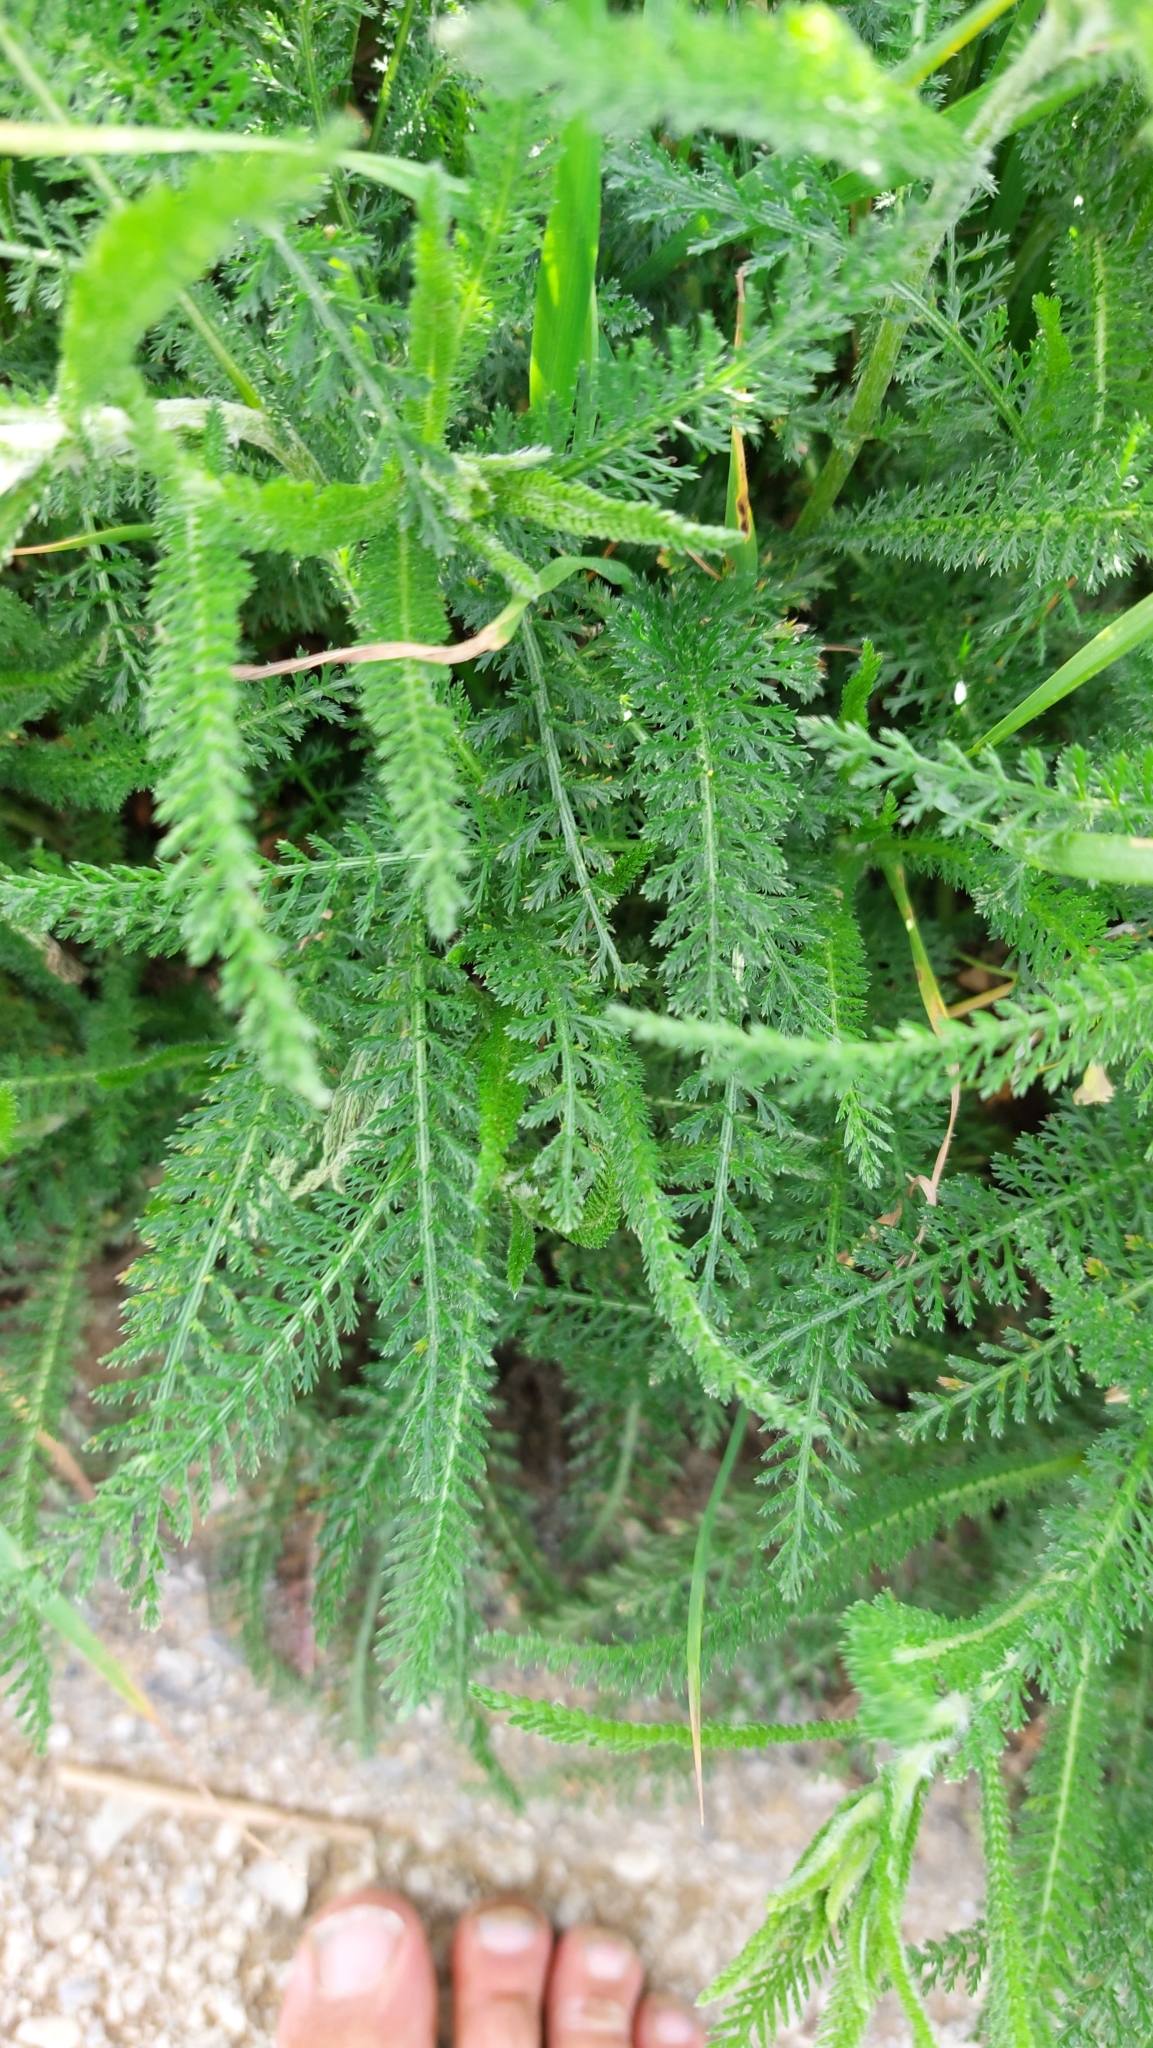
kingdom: Plantae
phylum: Tracheophyta
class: Magnoliopsida
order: Asterales
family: Asteraceae
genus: Achillea
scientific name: Achillea millefolium
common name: Yarrow
